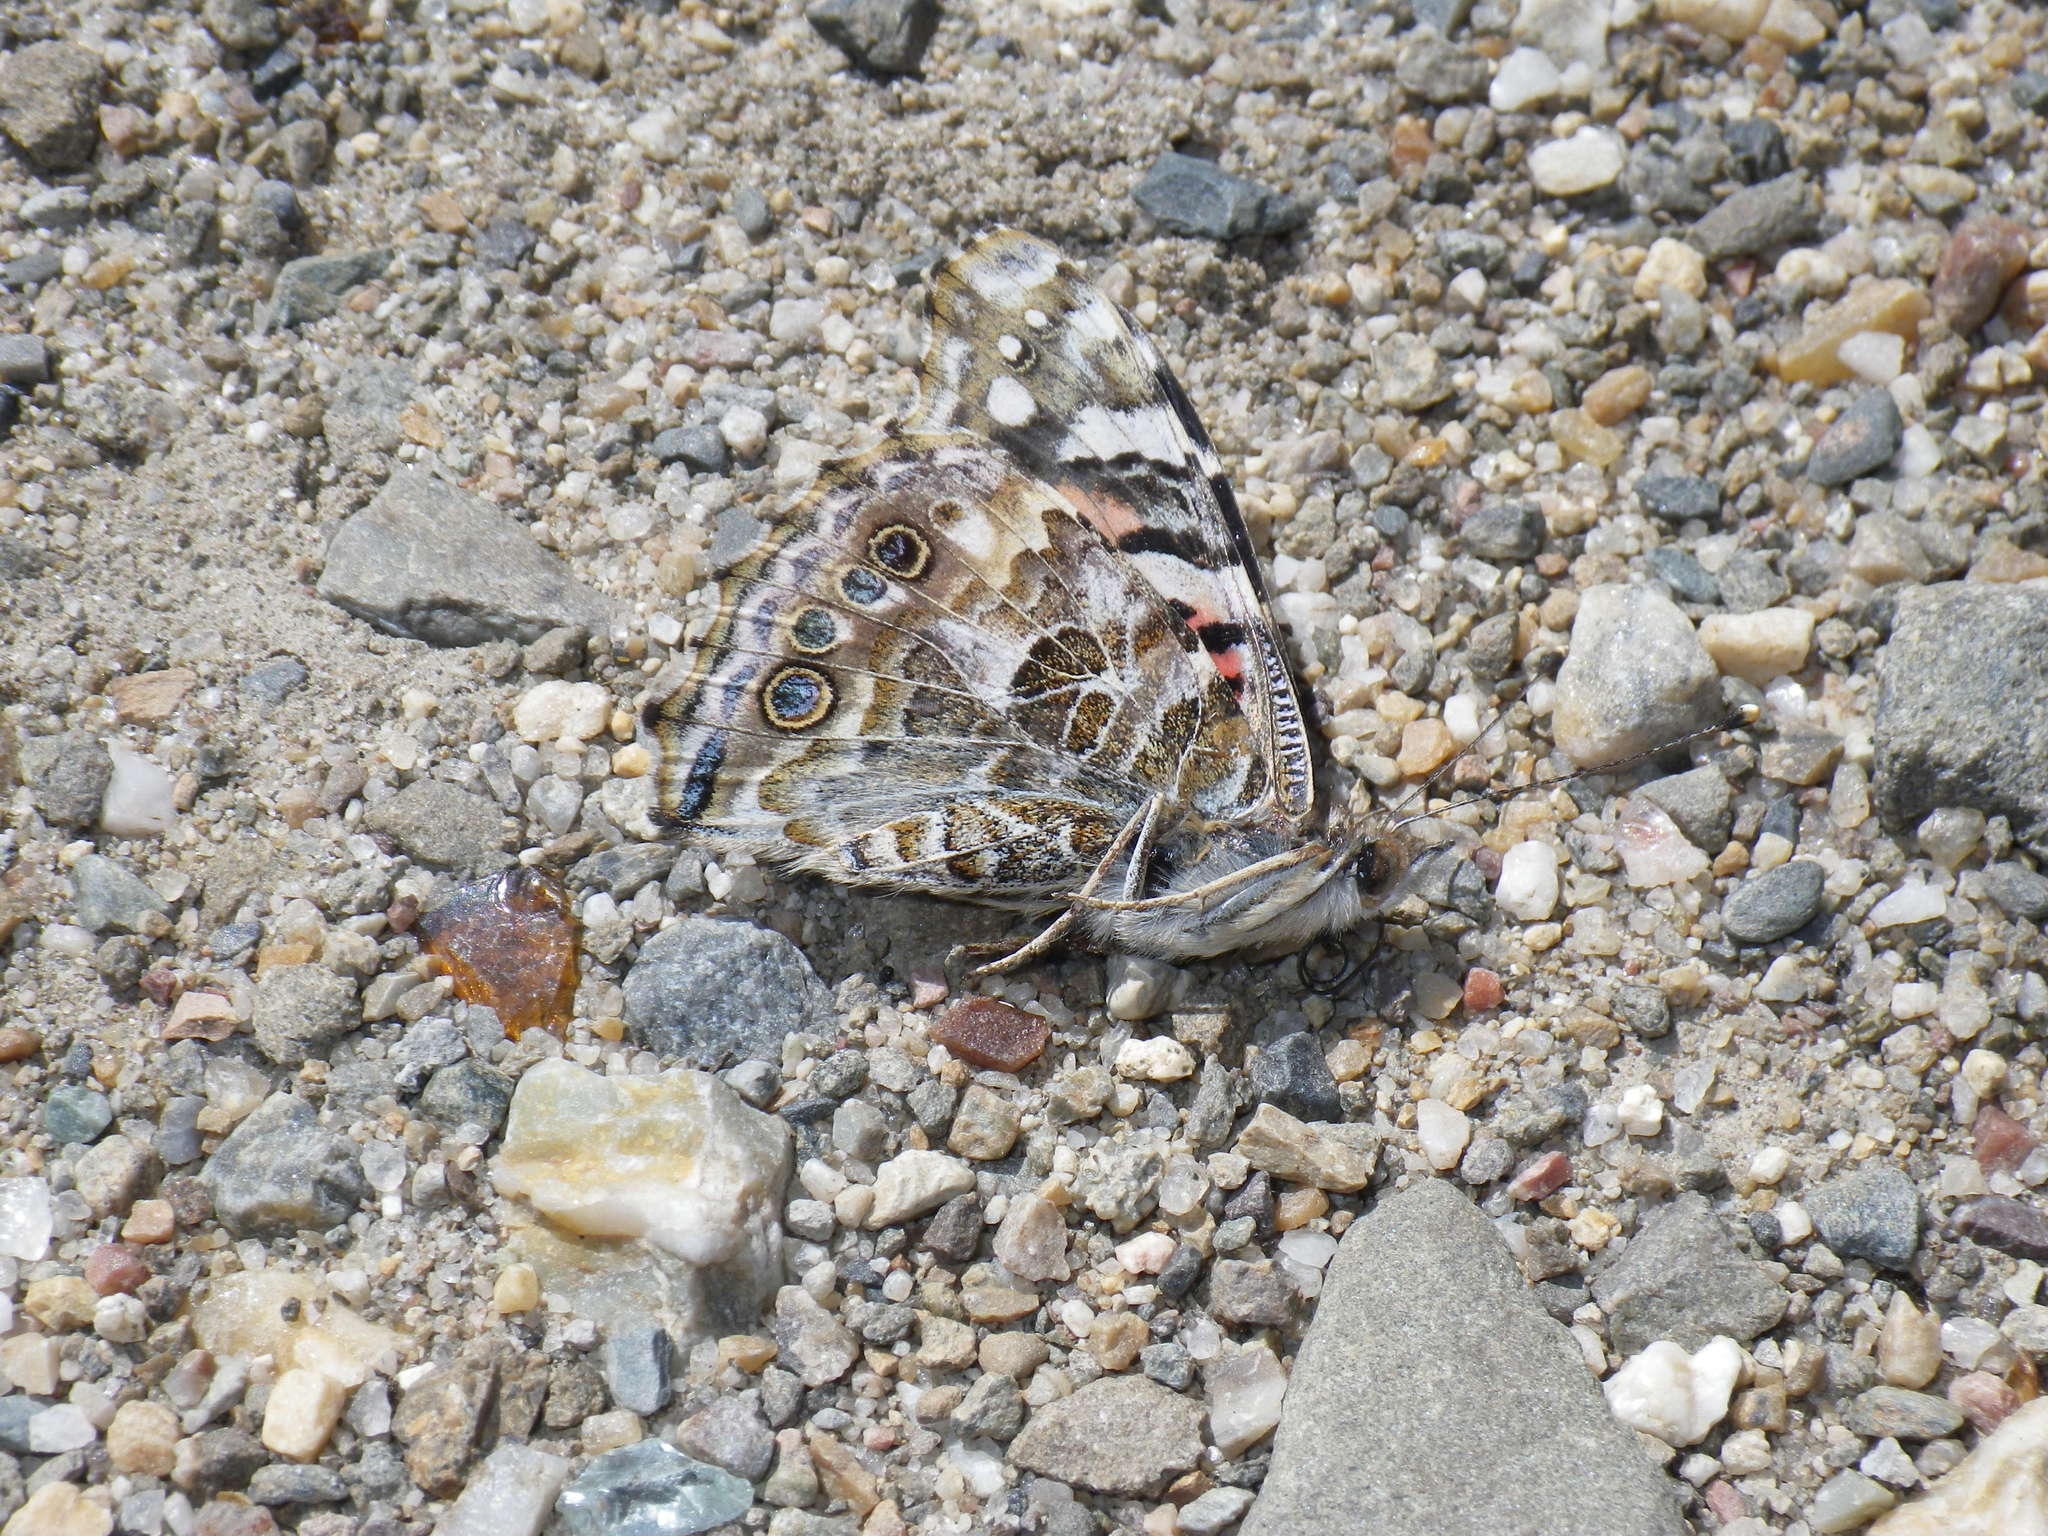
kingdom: Animalia
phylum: Arthropoda
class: Insecta
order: Lepidoptera
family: Nymphalidae
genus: Vanessa
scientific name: Vanessa cardui
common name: Painted lady
